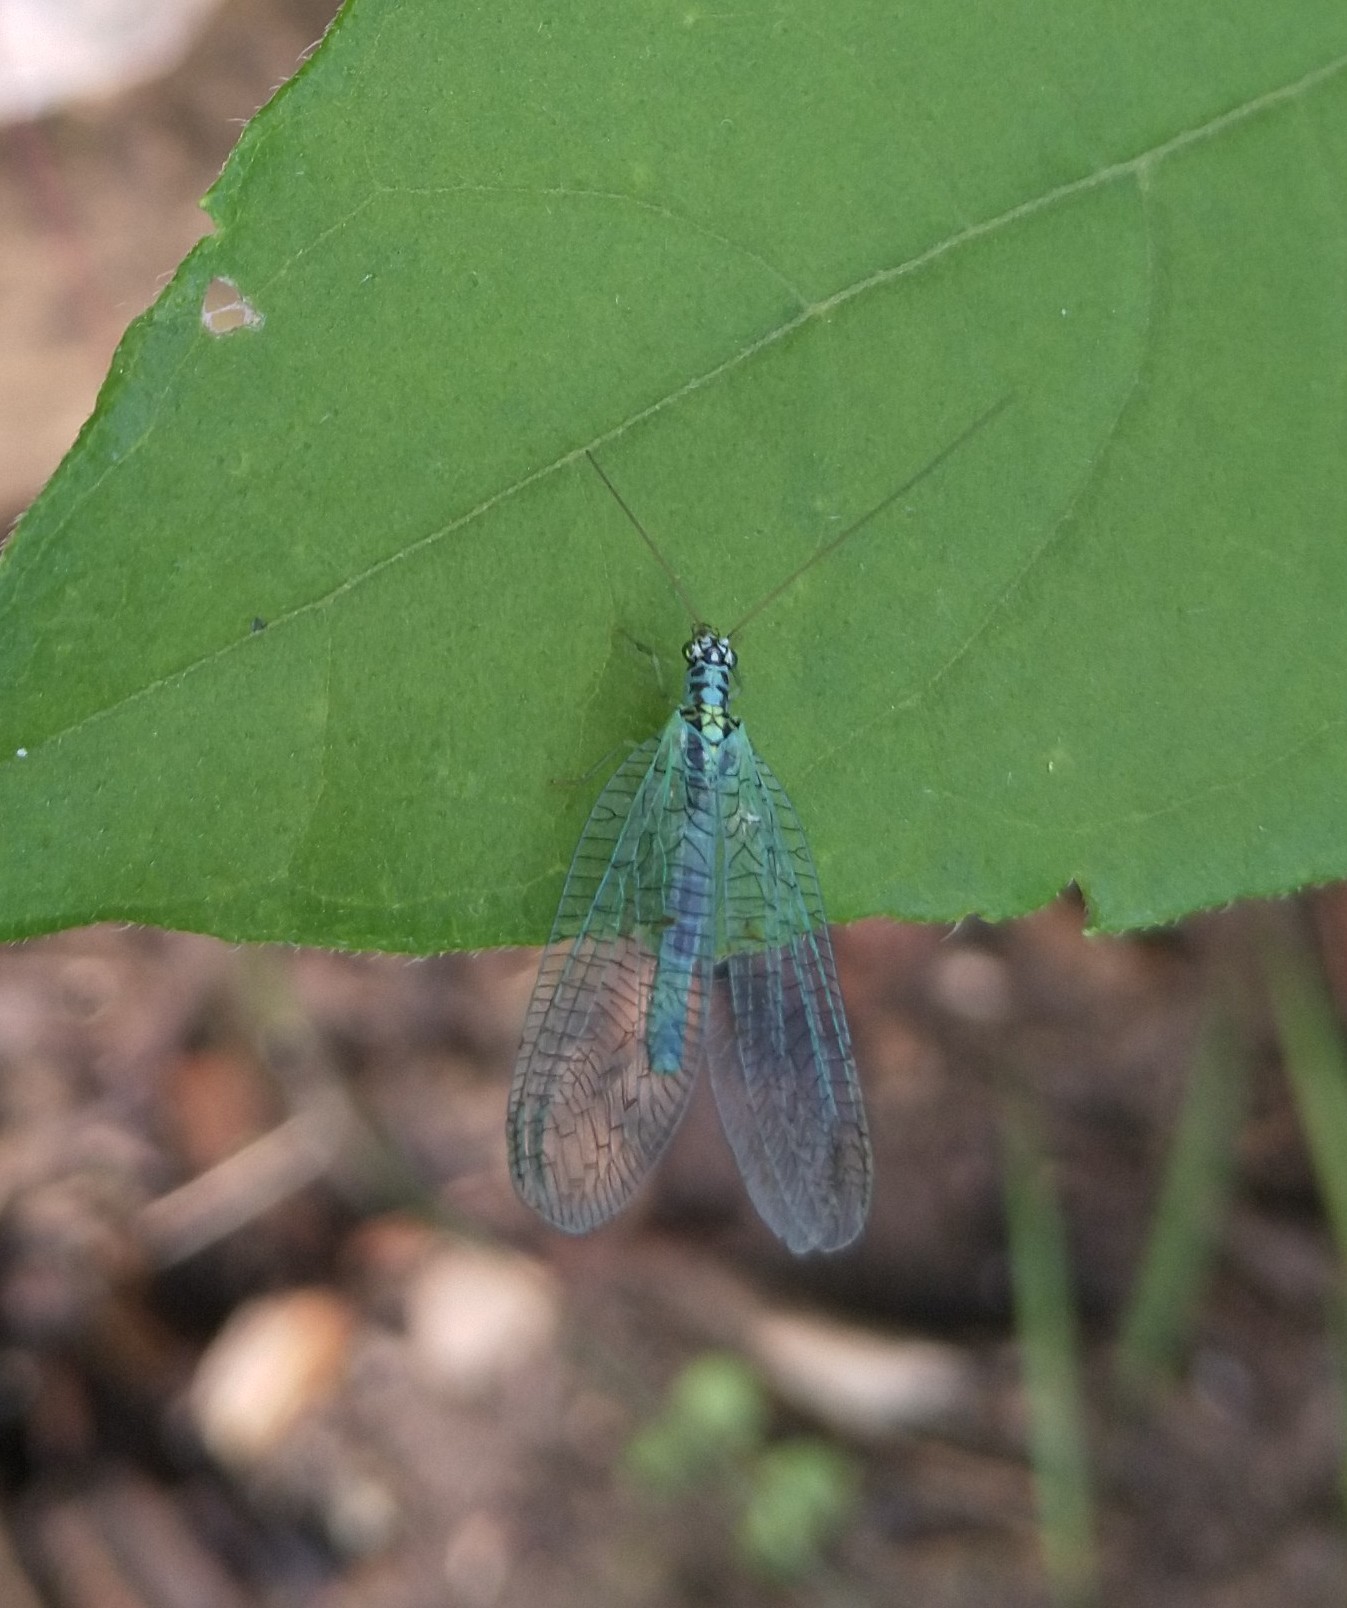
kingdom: Animalia
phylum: Arthropoda
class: Insecta
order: Neuroptera
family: Chrysopidae
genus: Chrysopa
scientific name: Chrysopa perla
